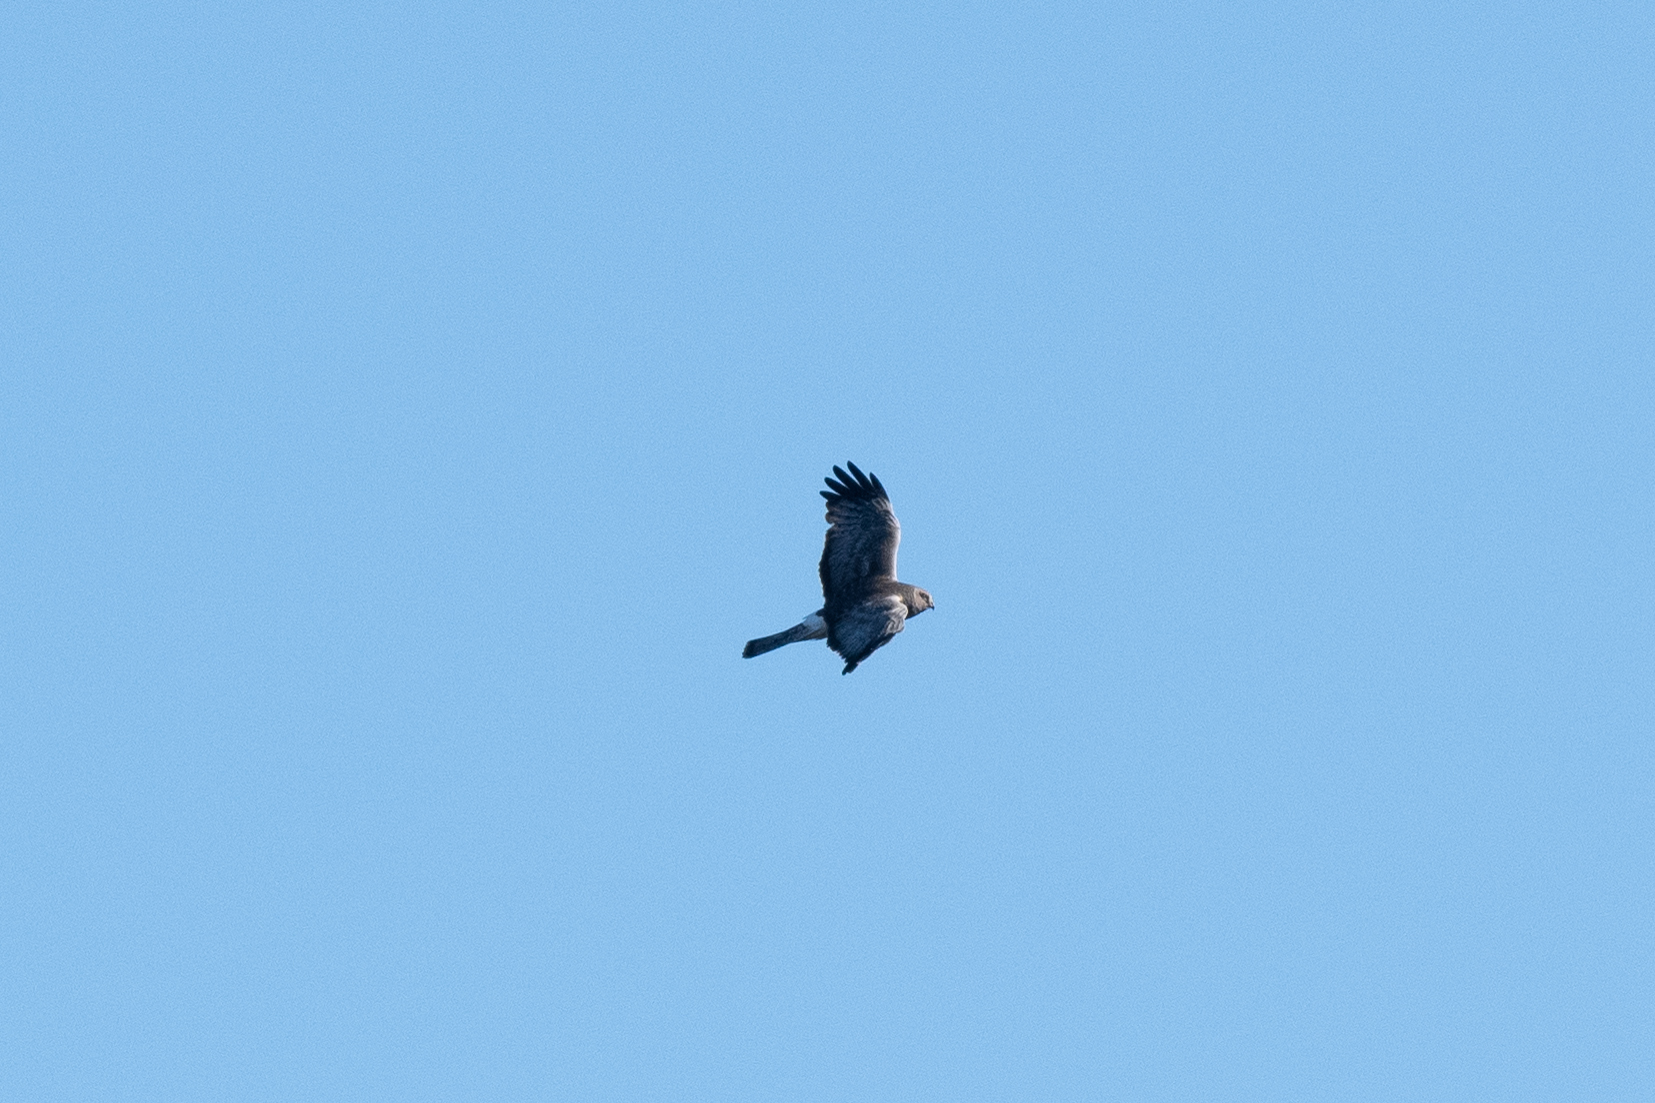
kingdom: Animalia
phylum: Chordata
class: Aves
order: Accipitriformes
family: Accipitridae
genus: Circus
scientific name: Circus cyaneus
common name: Hen harrier
